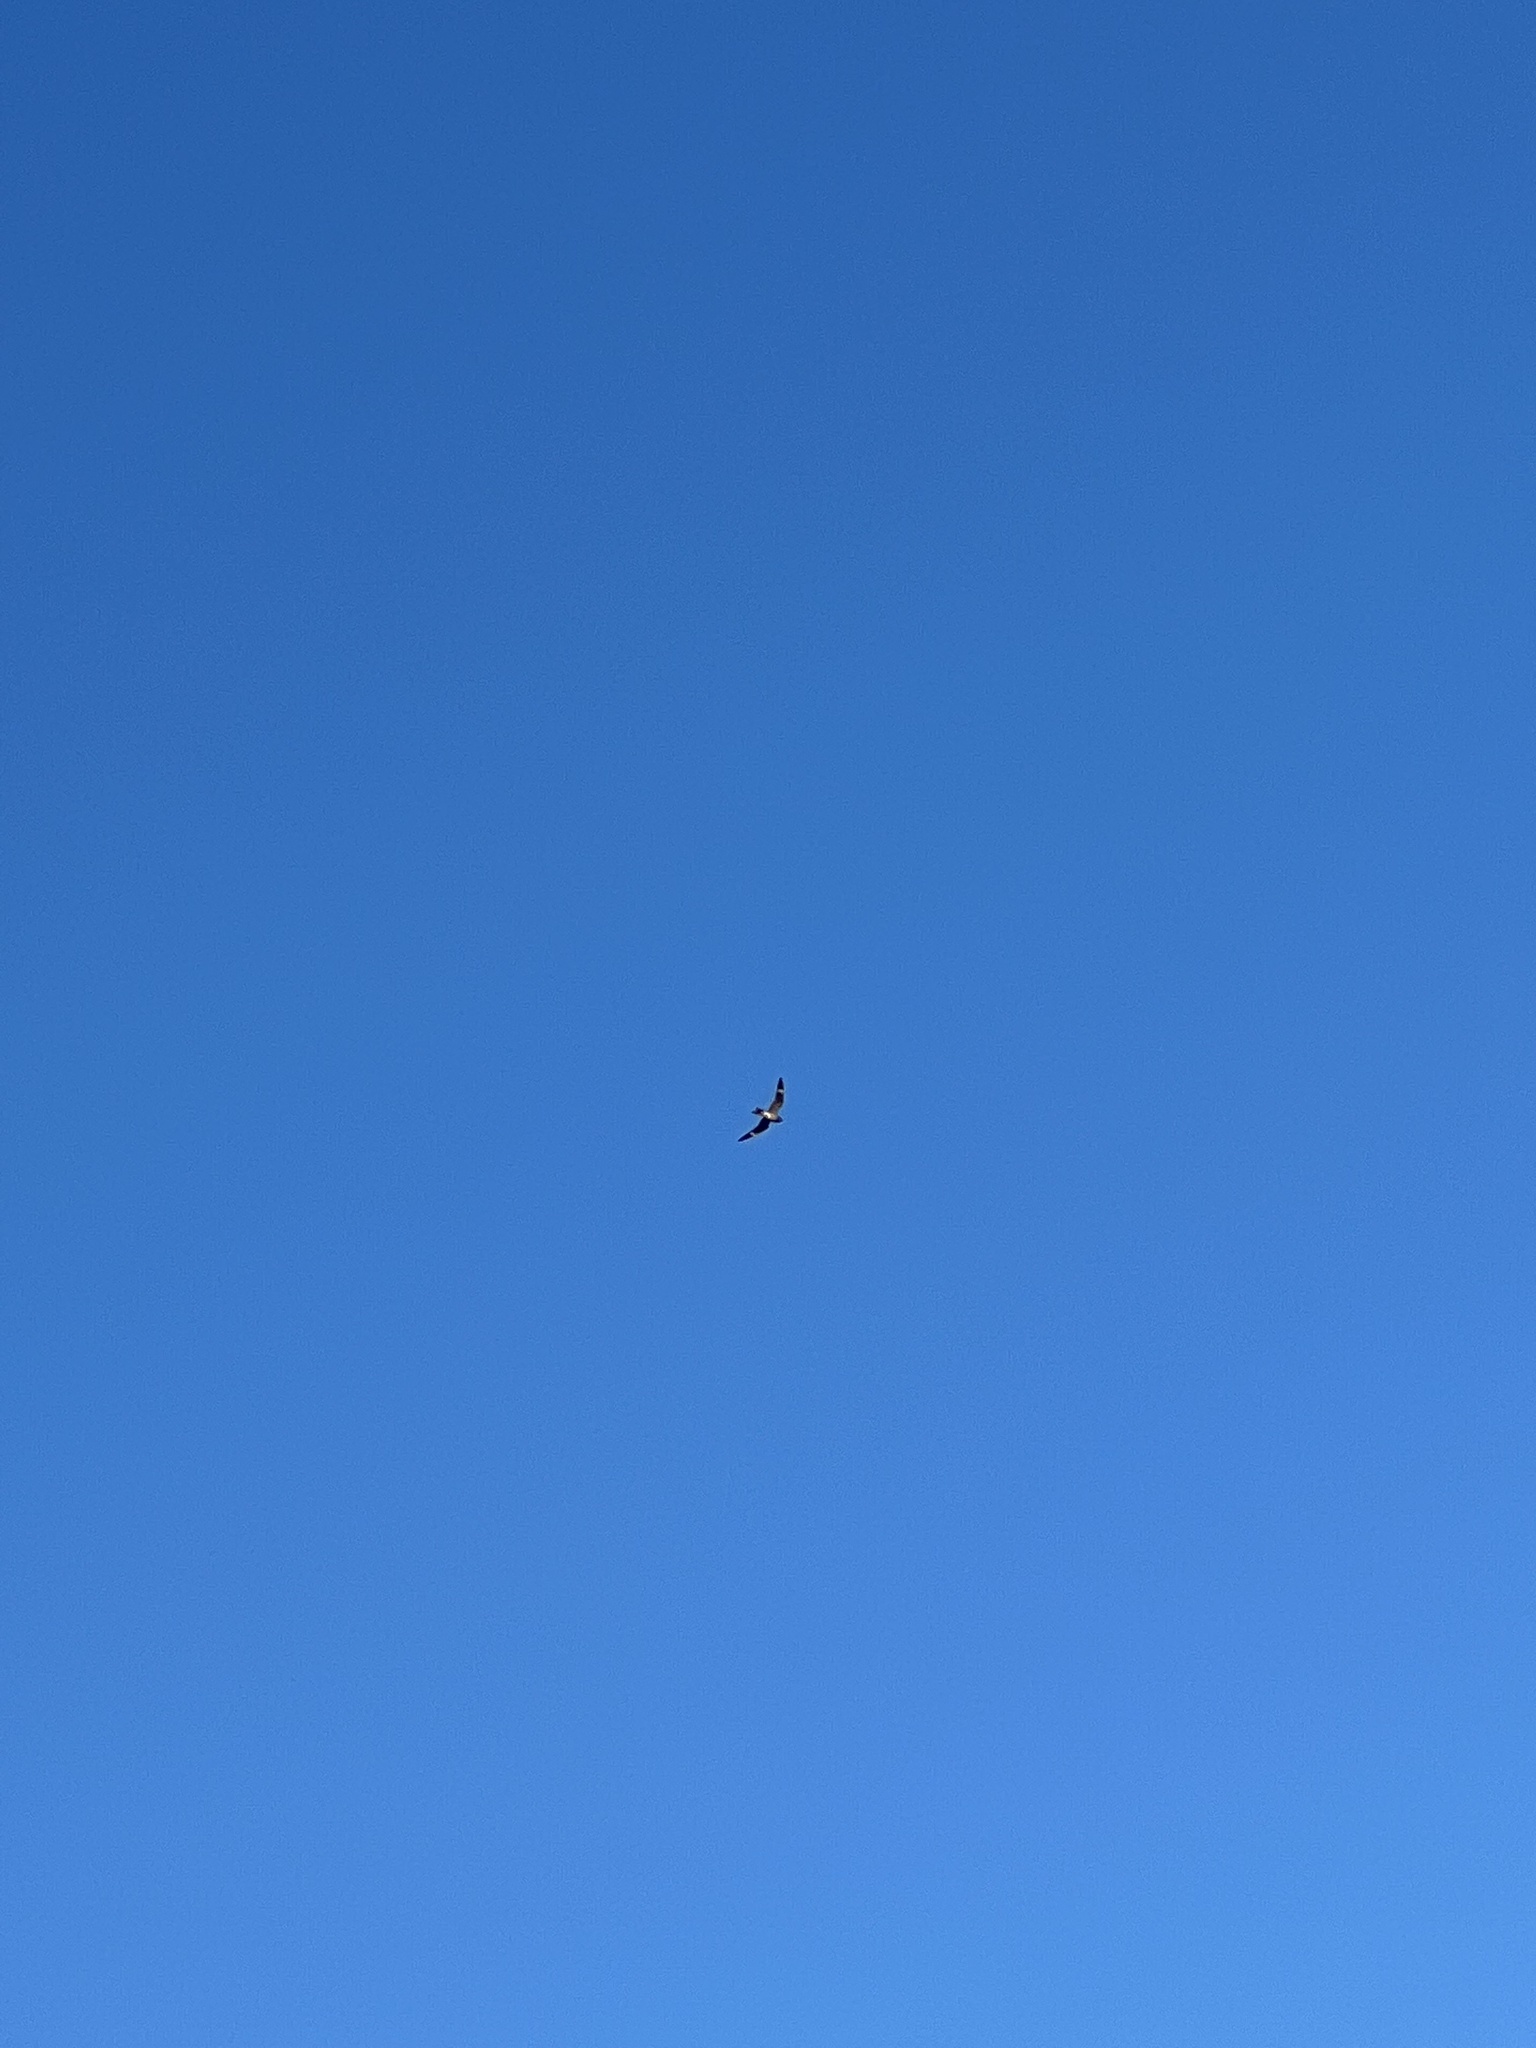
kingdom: Animalia
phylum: Chordata
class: Aves
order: Caprimulgiformes
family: Caprimulgidae
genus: Chordeiles
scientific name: Chordeiles minor
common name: Common nighthawk
